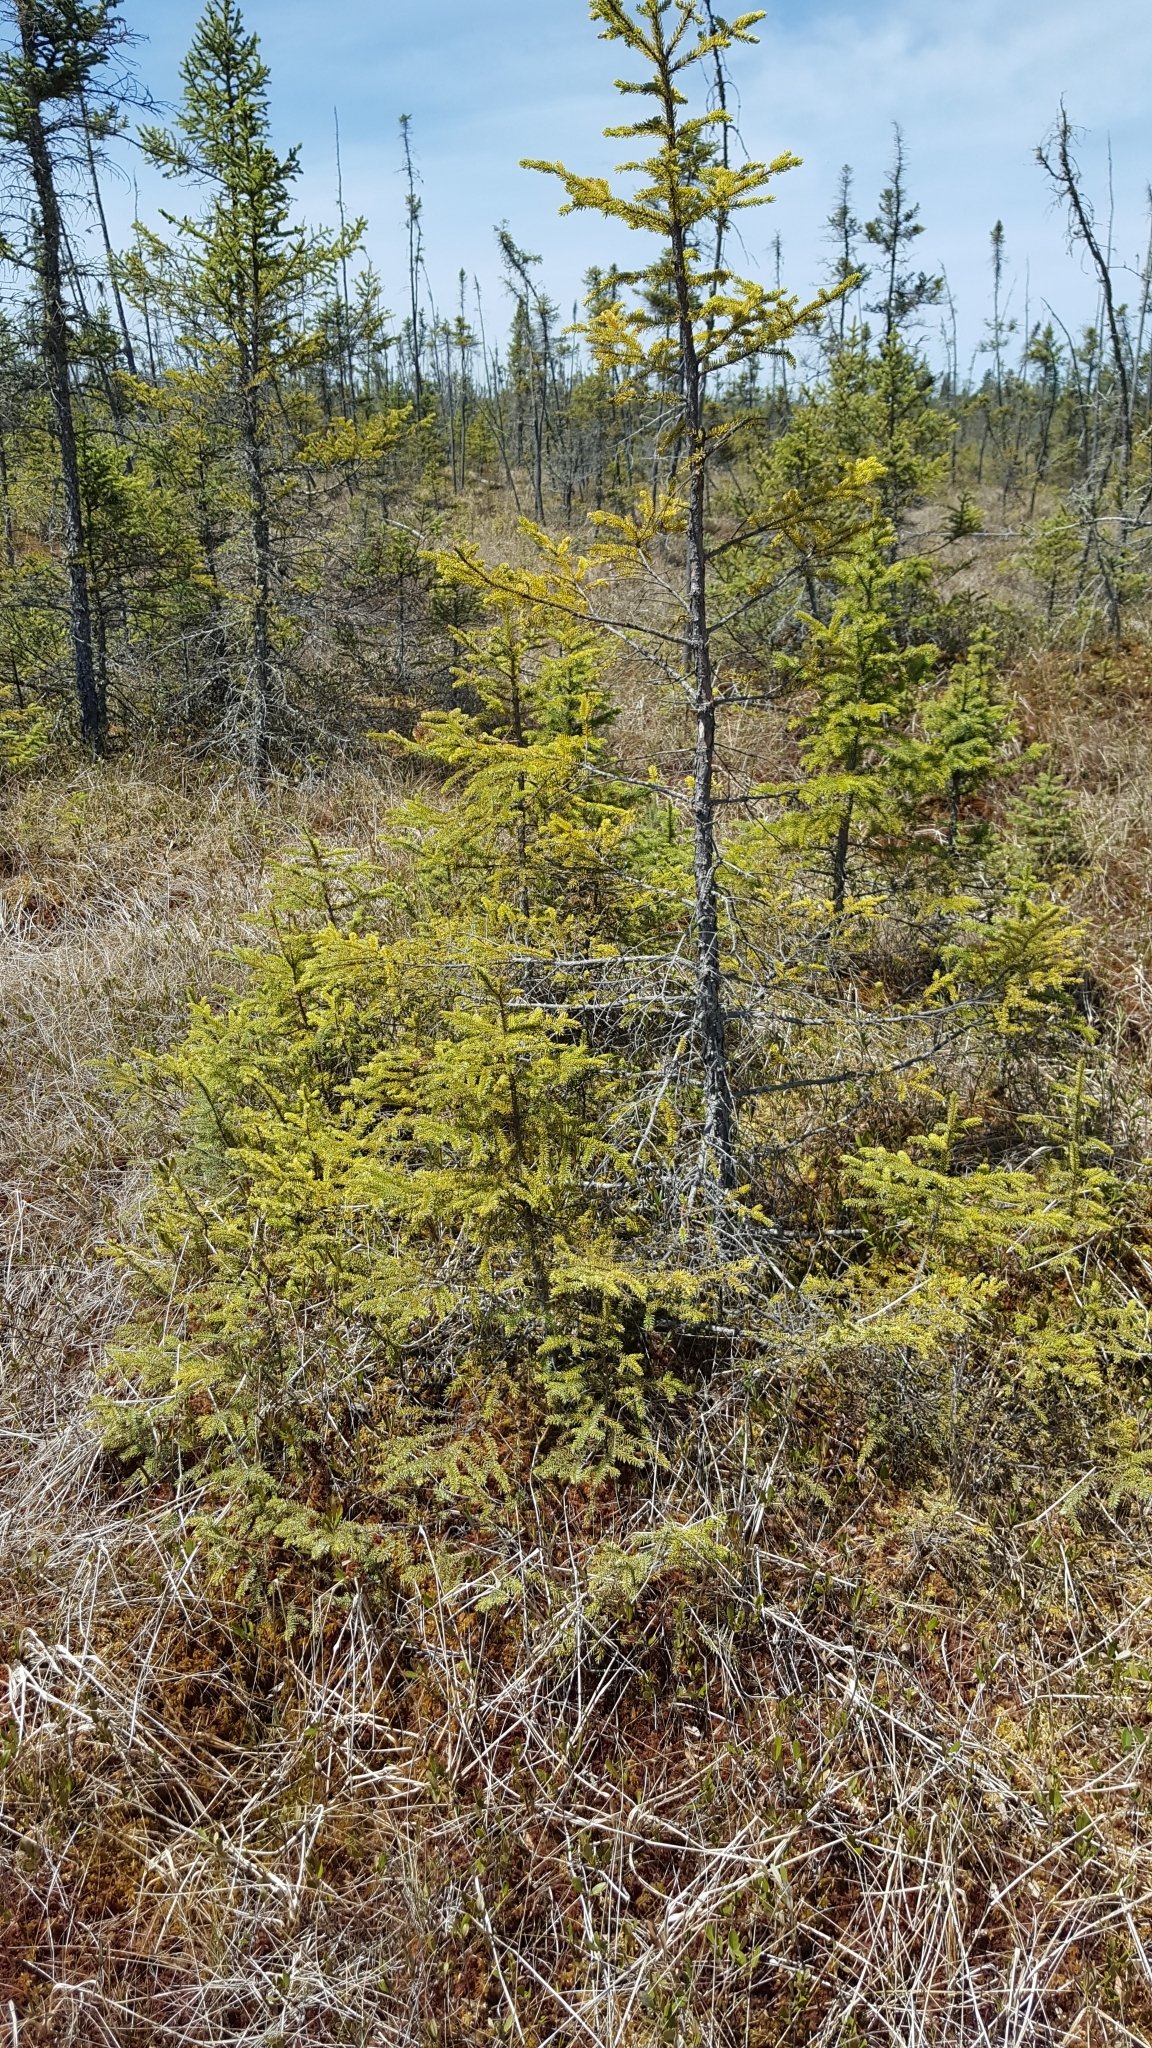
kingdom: Plantae
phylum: Tracheophyta
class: Pinopsida
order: Pinales
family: Pinaceae
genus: Picea
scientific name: Picea mariana
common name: Black spruce
